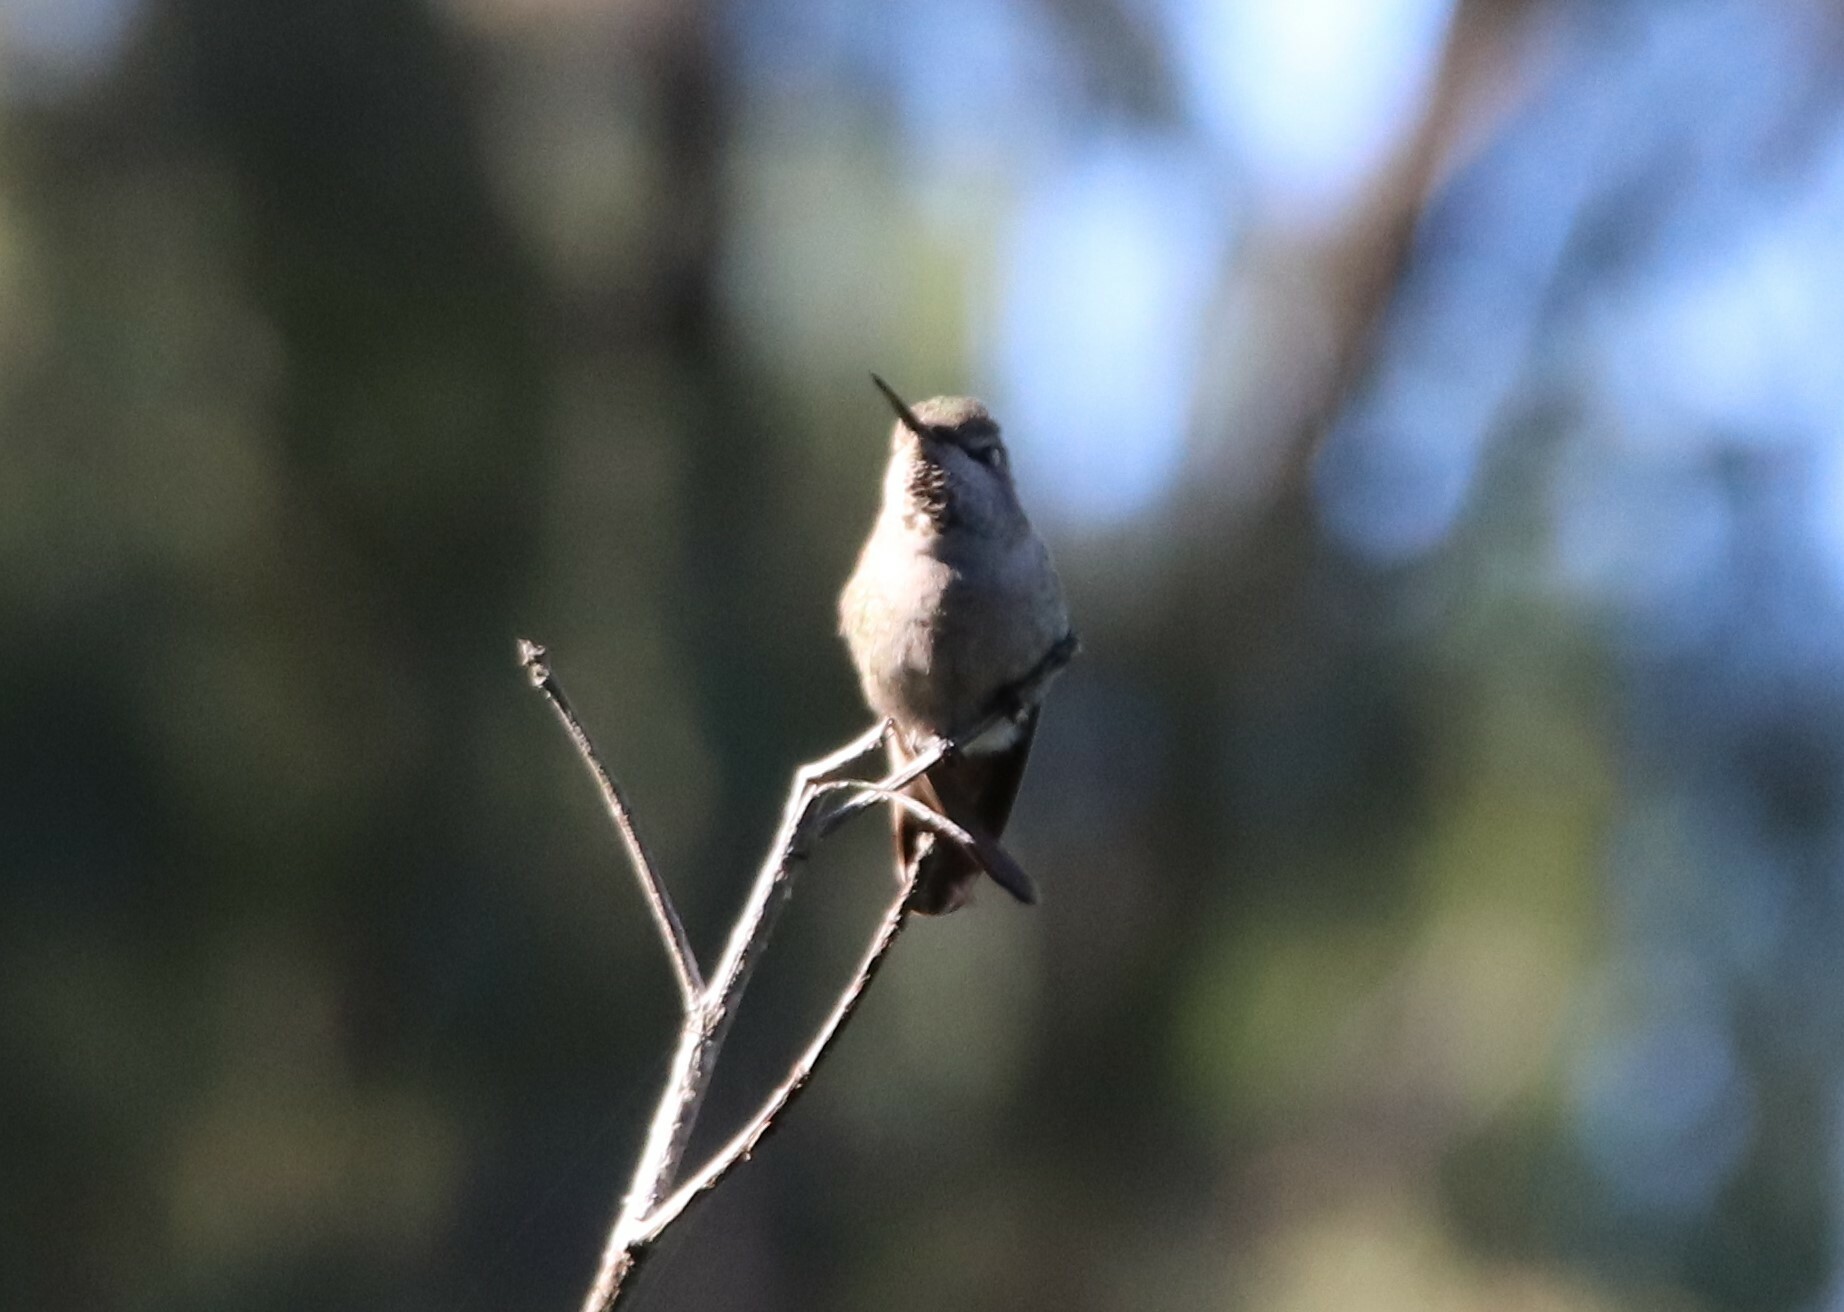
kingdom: Animalia
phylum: Chordata
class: Aves
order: Apodiformes
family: Trochilidae
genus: Calypte
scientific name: Calypte anna
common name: Anna's hummingbird
